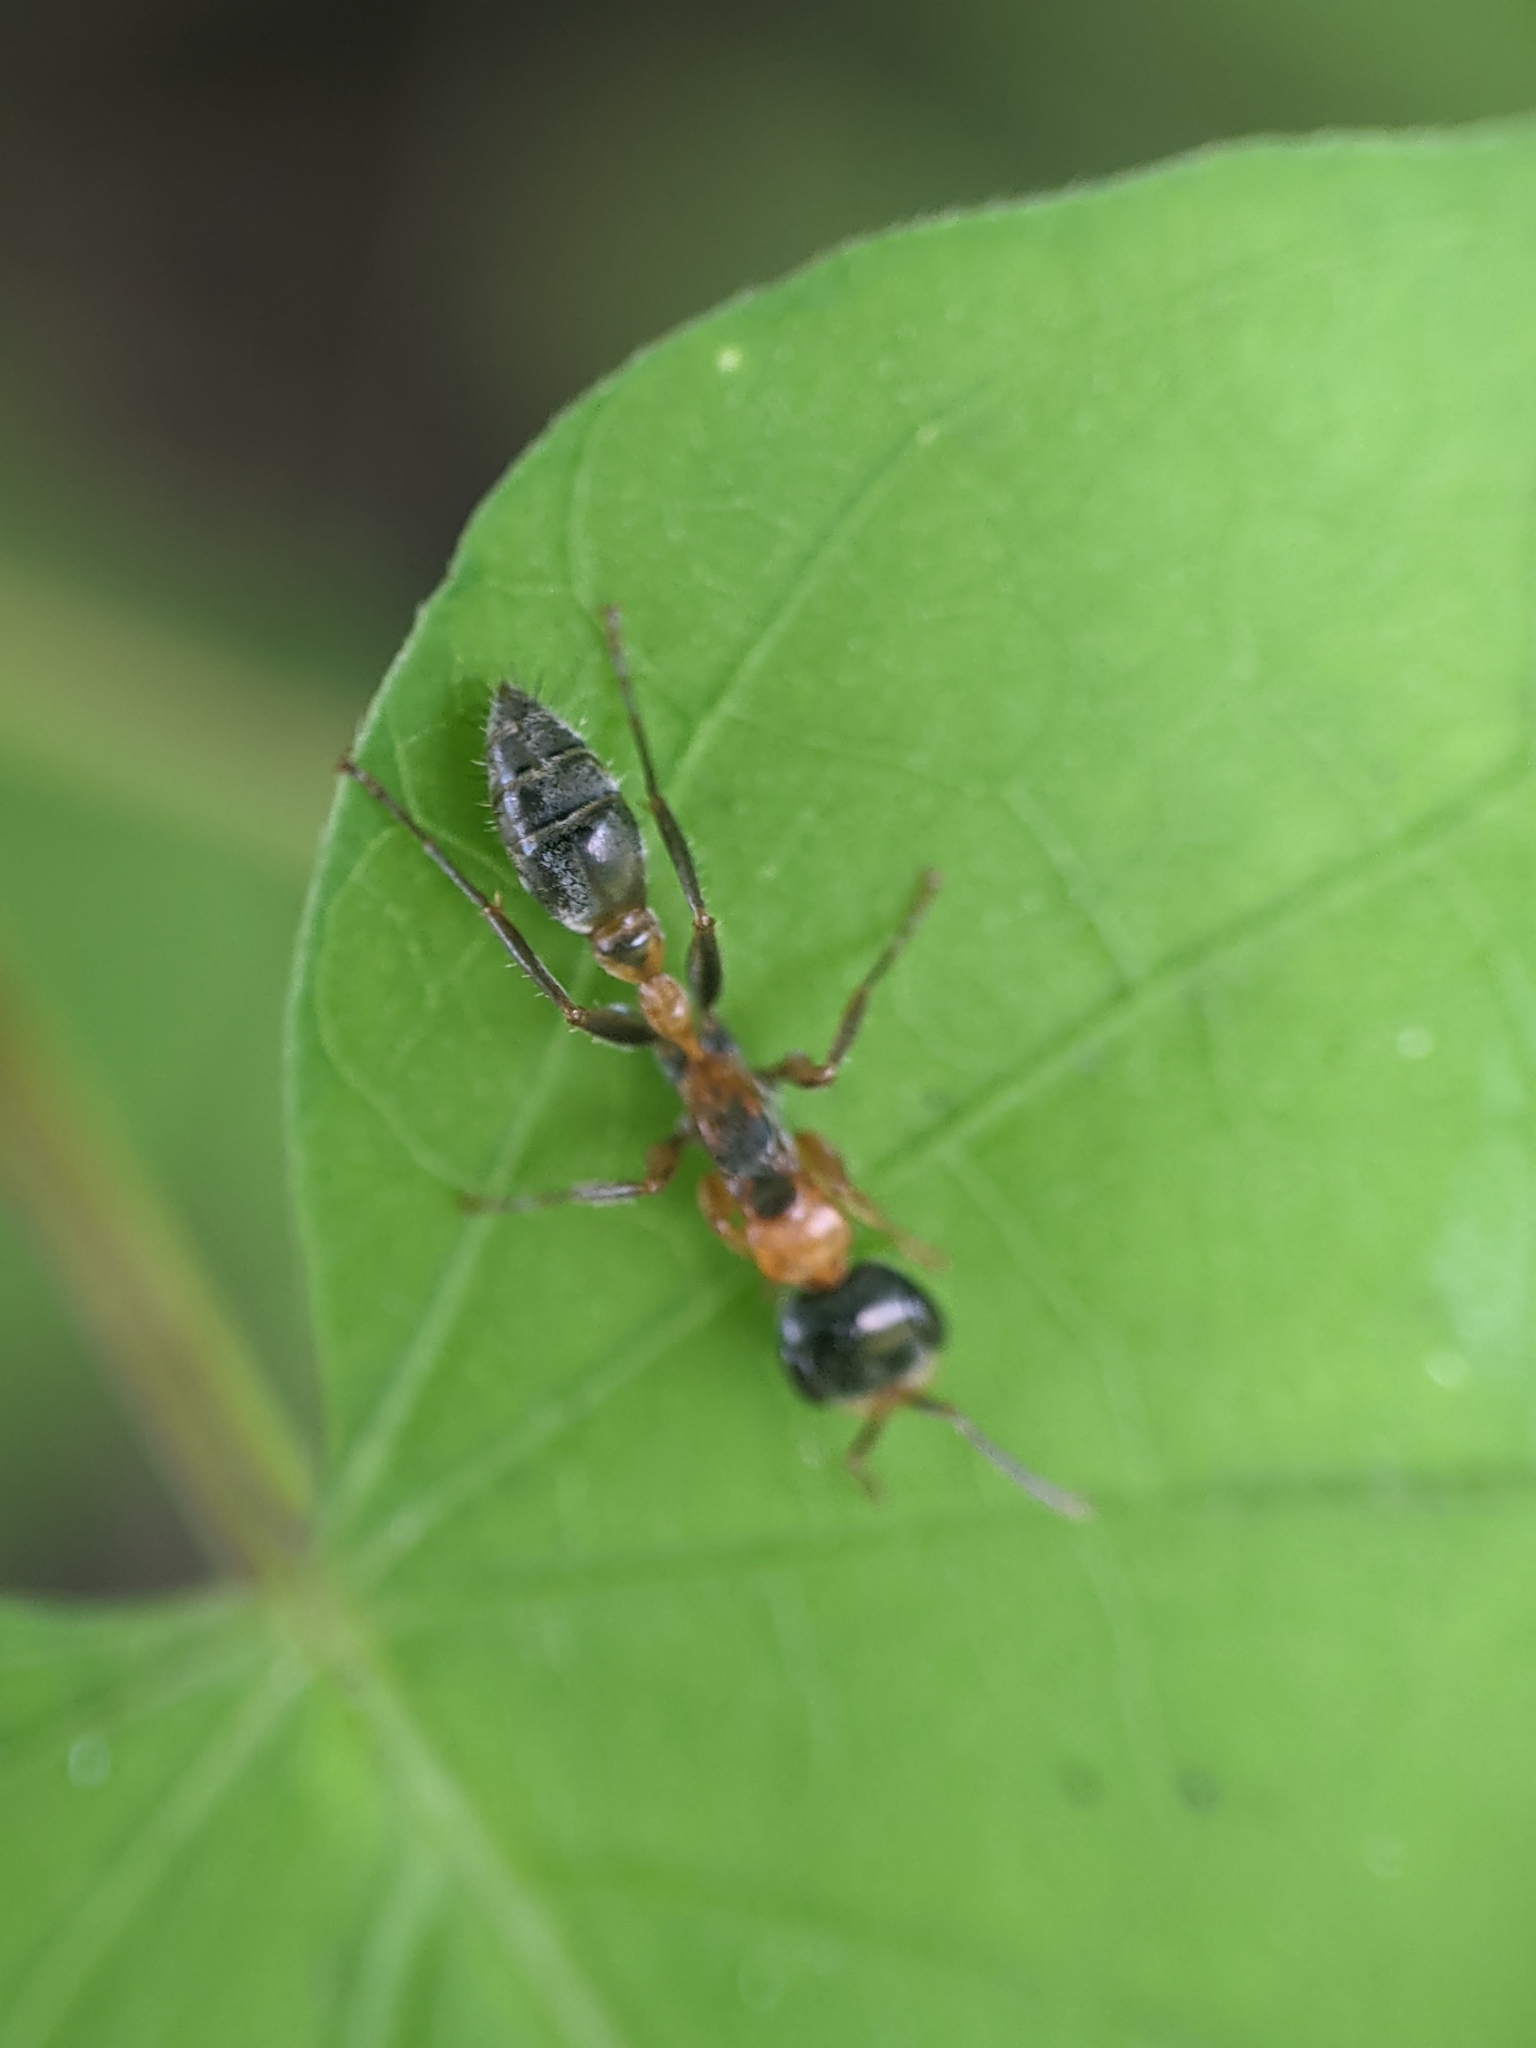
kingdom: Animalia
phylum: Arthropoda
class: Insecta
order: Hymenoptera
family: Formicidae
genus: Pseudomyrmex
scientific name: Pseudomyrmex gracilis
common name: Graceful twig ant
